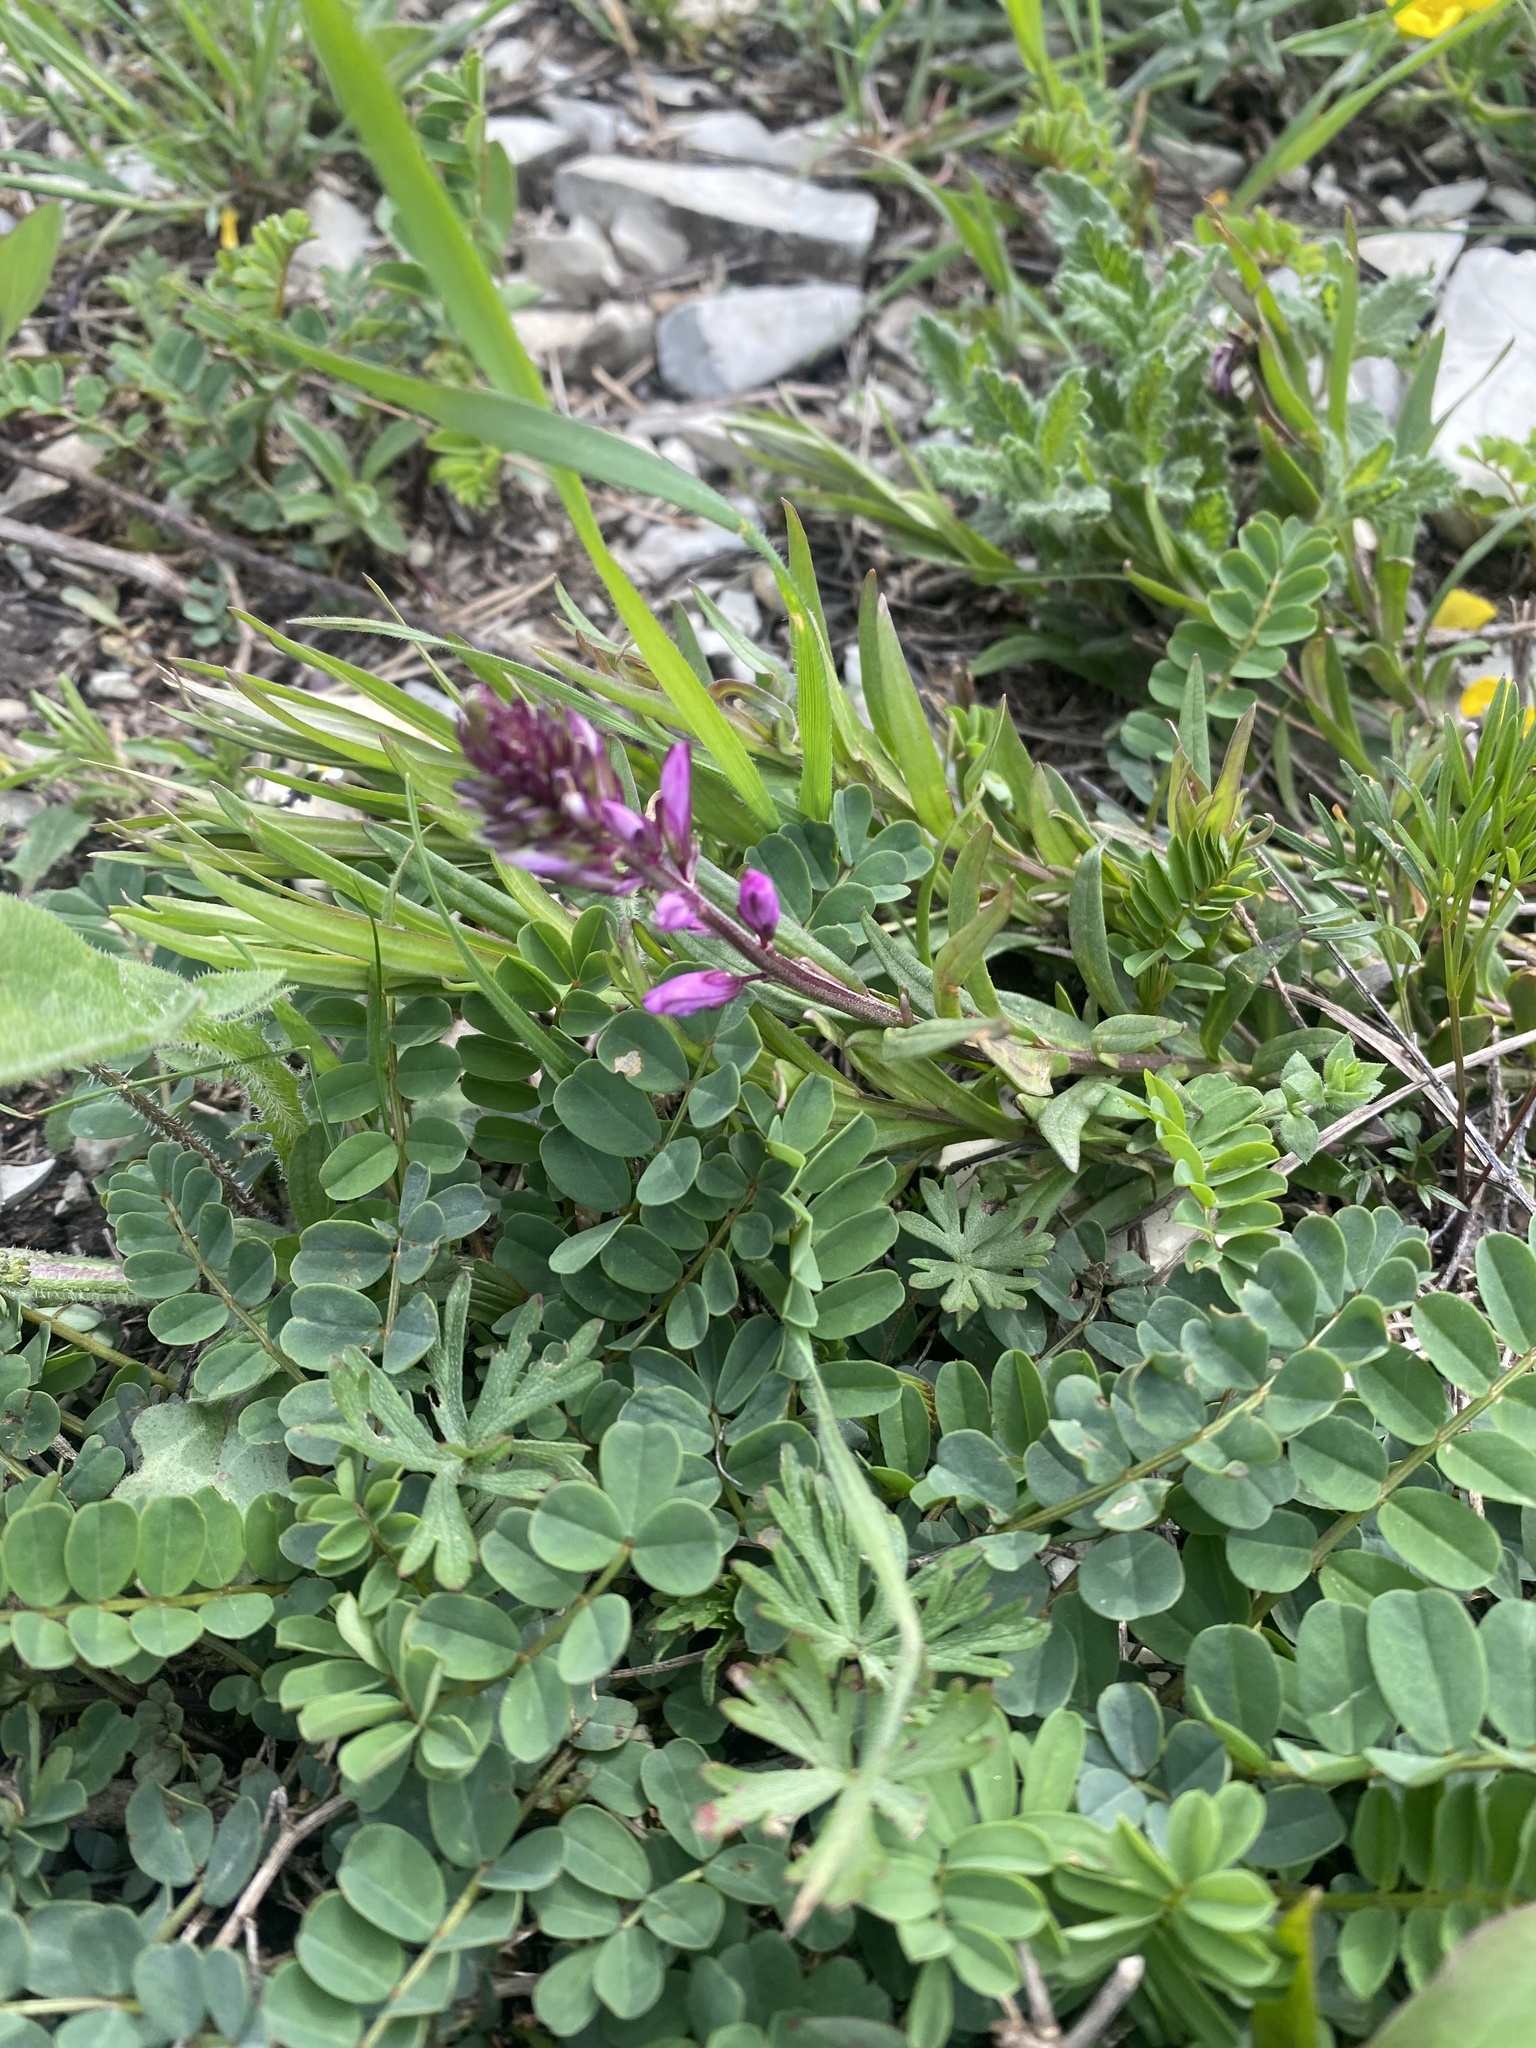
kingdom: Plantae
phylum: Tracheophyta
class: Magnoliopsida
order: Fabales
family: Polygalaceae
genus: Polygala
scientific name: Polygala major
